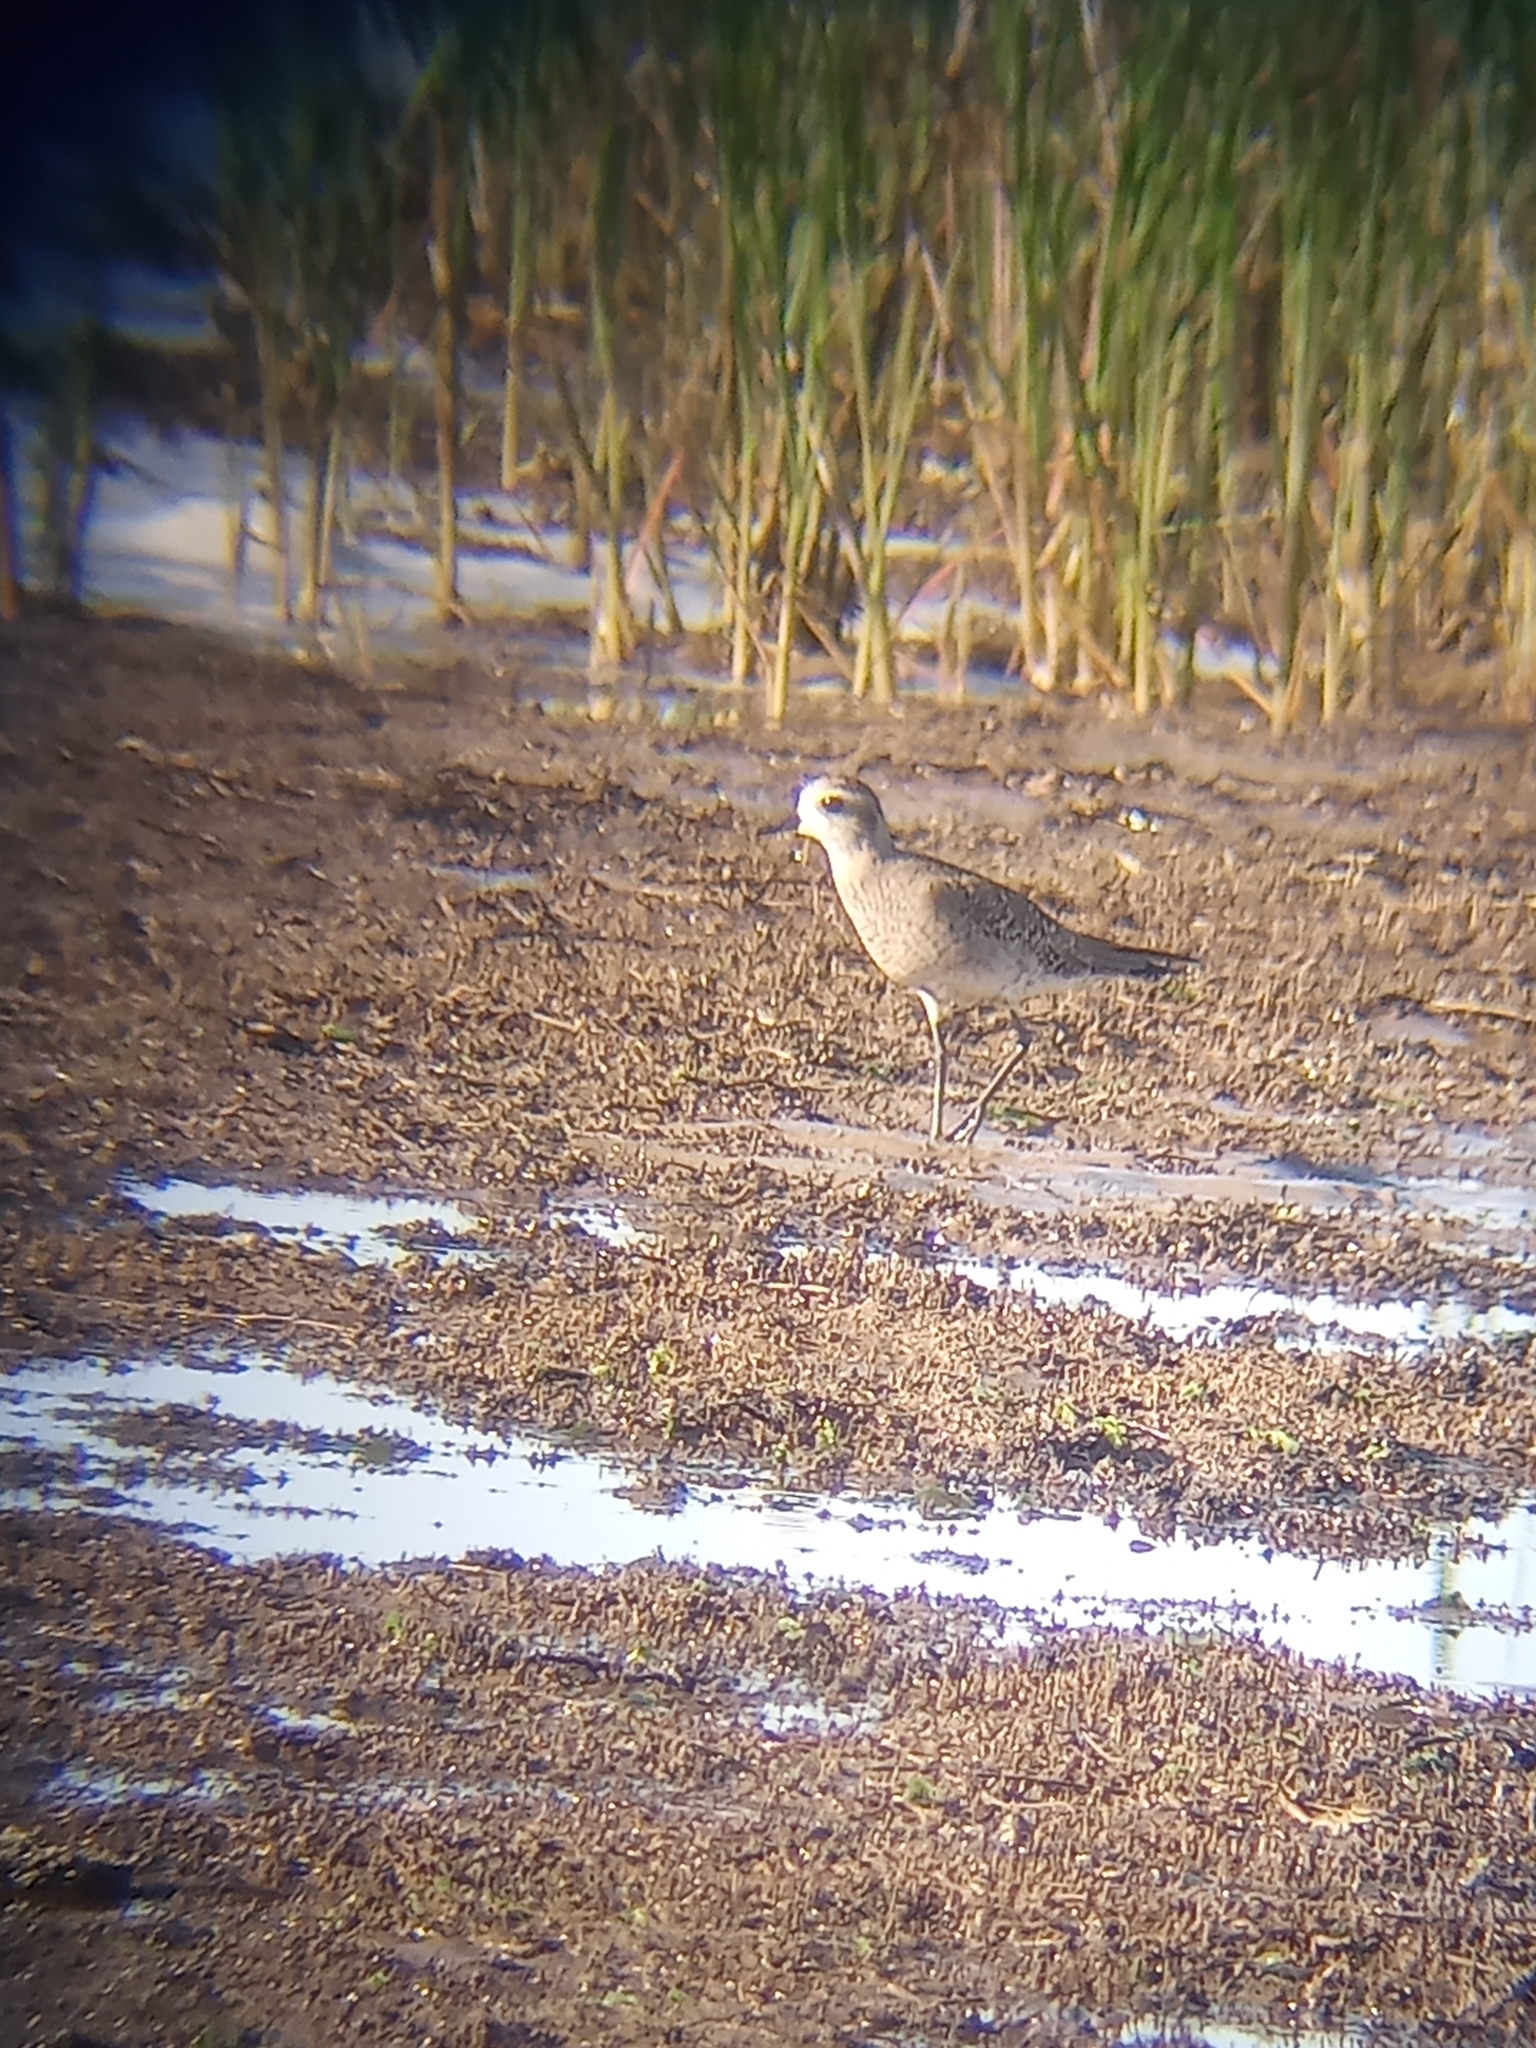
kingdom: Animalia
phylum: Chordata
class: Aves
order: Charadriiformes
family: Charadriidae
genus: Pluvialis
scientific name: Pluvialis dominica
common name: American golden plover
